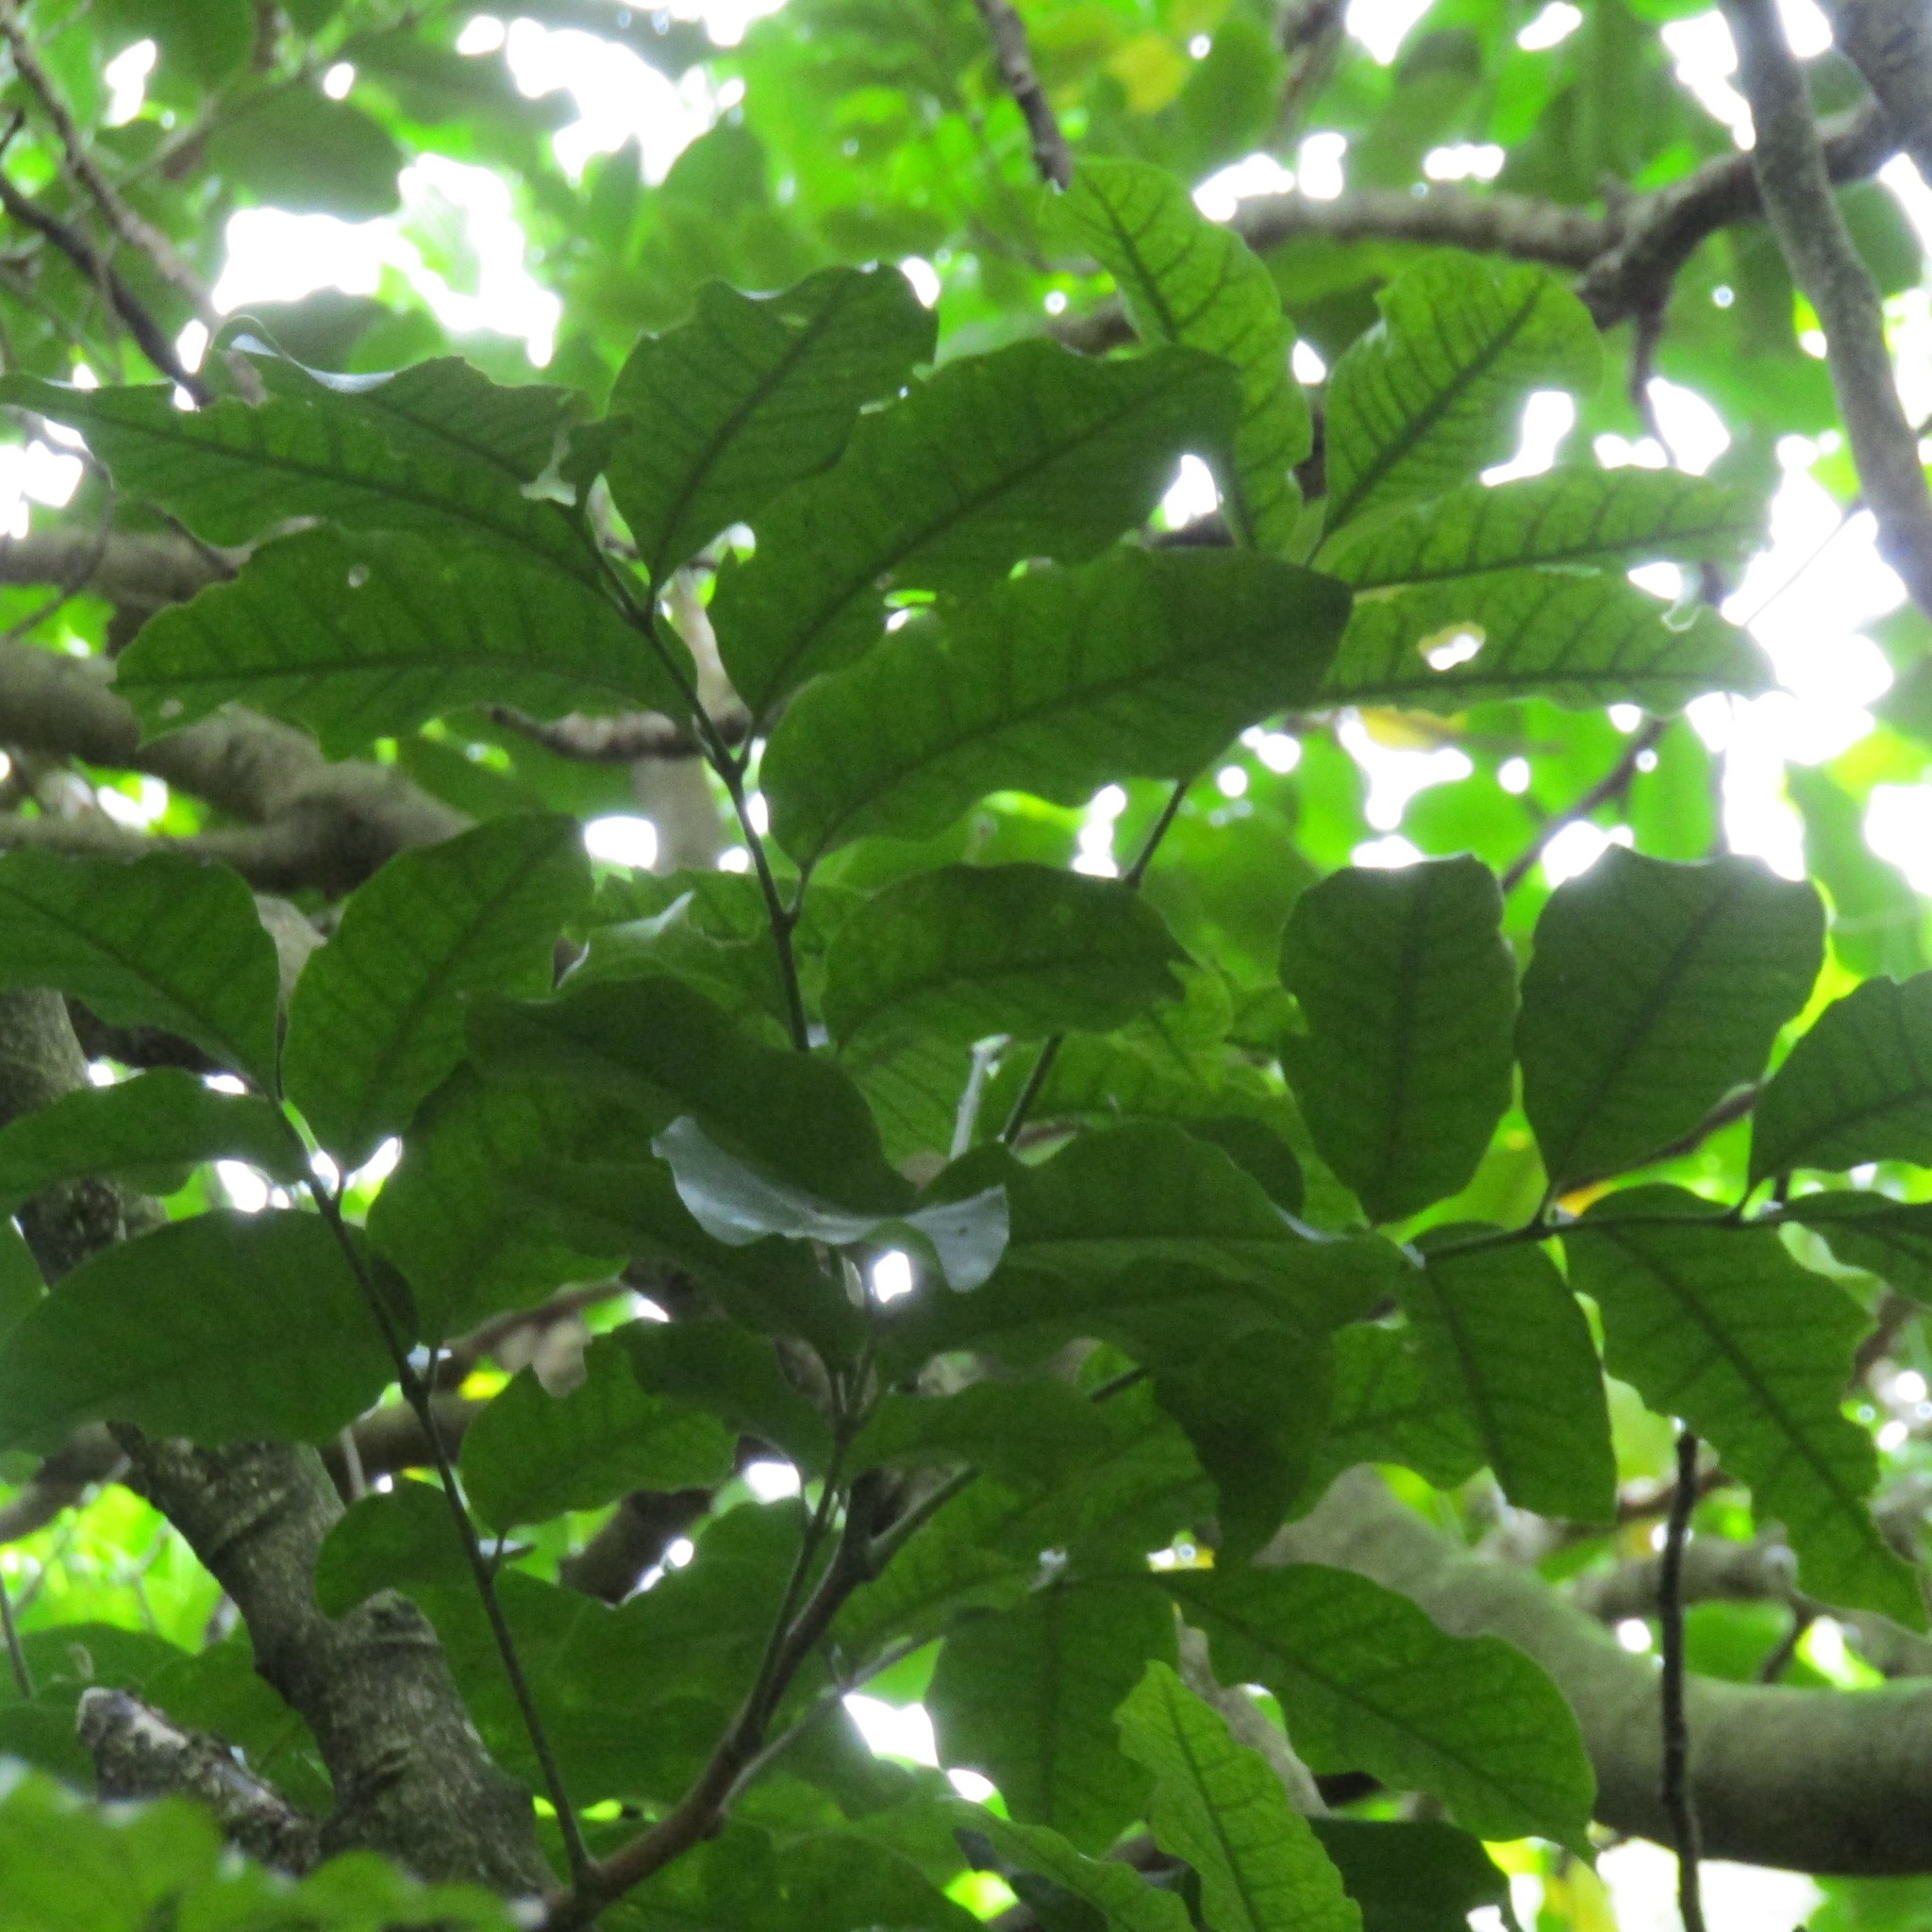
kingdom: Plantae
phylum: Tracheophyta
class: Magnoliopsida
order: Sapindales
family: Meliaceae
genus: Didymocheton
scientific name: Didymocheton spectabilis
